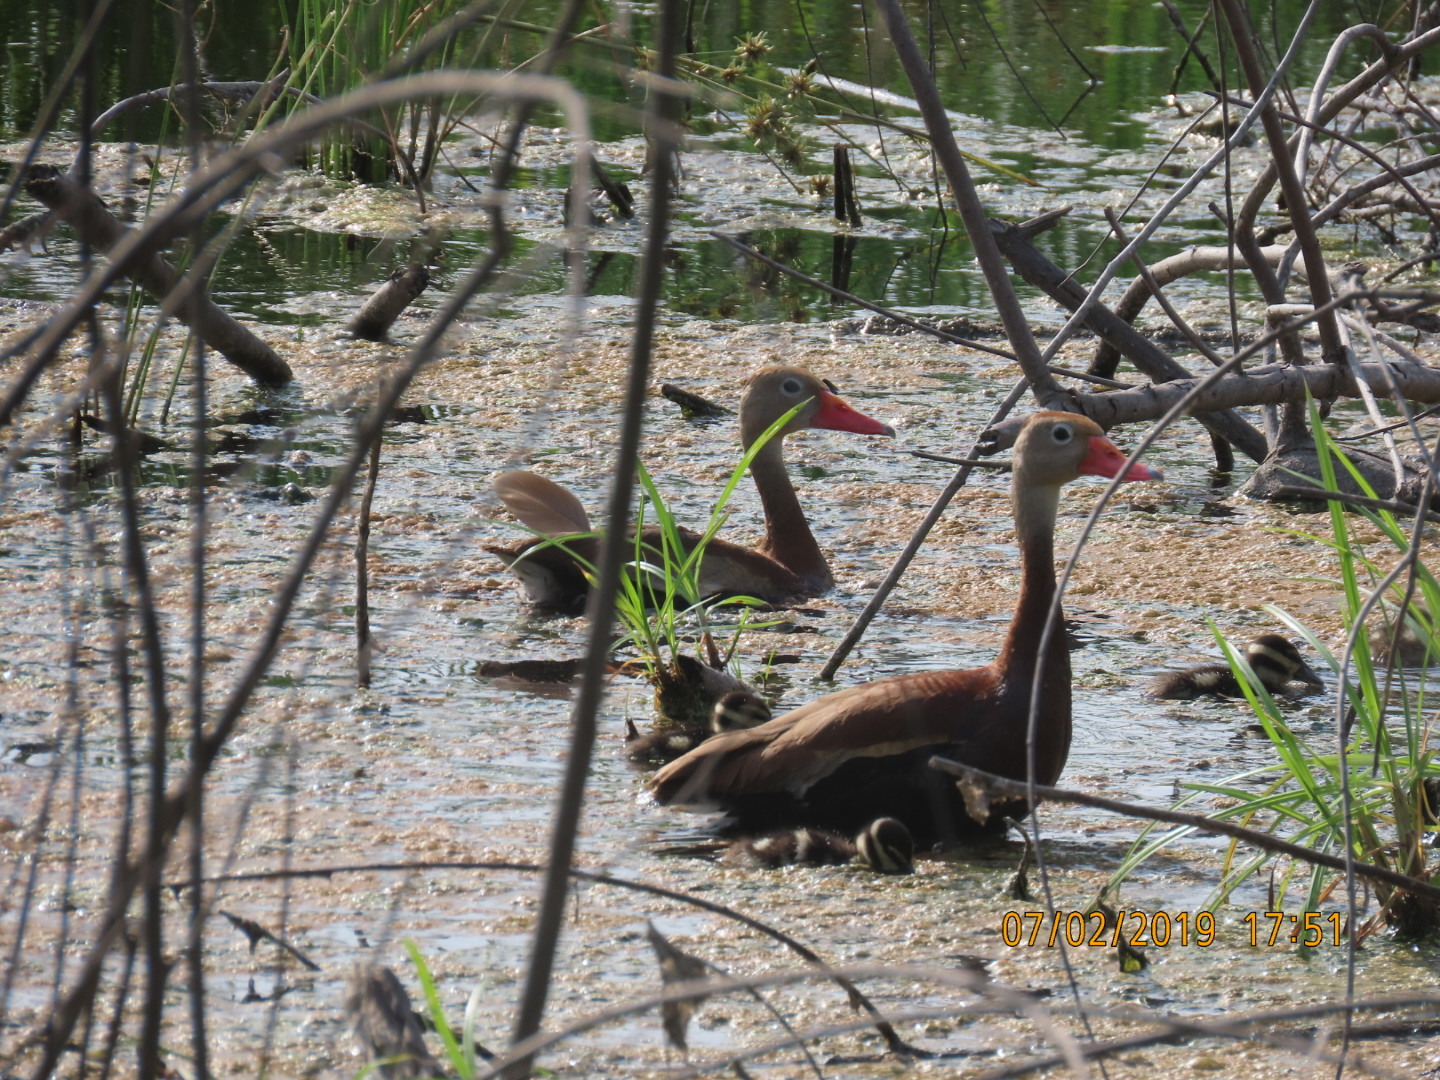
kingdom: Animalia
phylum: Chordata
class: Aves
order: Anseriformes
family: Anatidae
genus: Dendrocygna
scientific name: Dendrocygna autumnalis
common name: Black-bellied whistling duck
